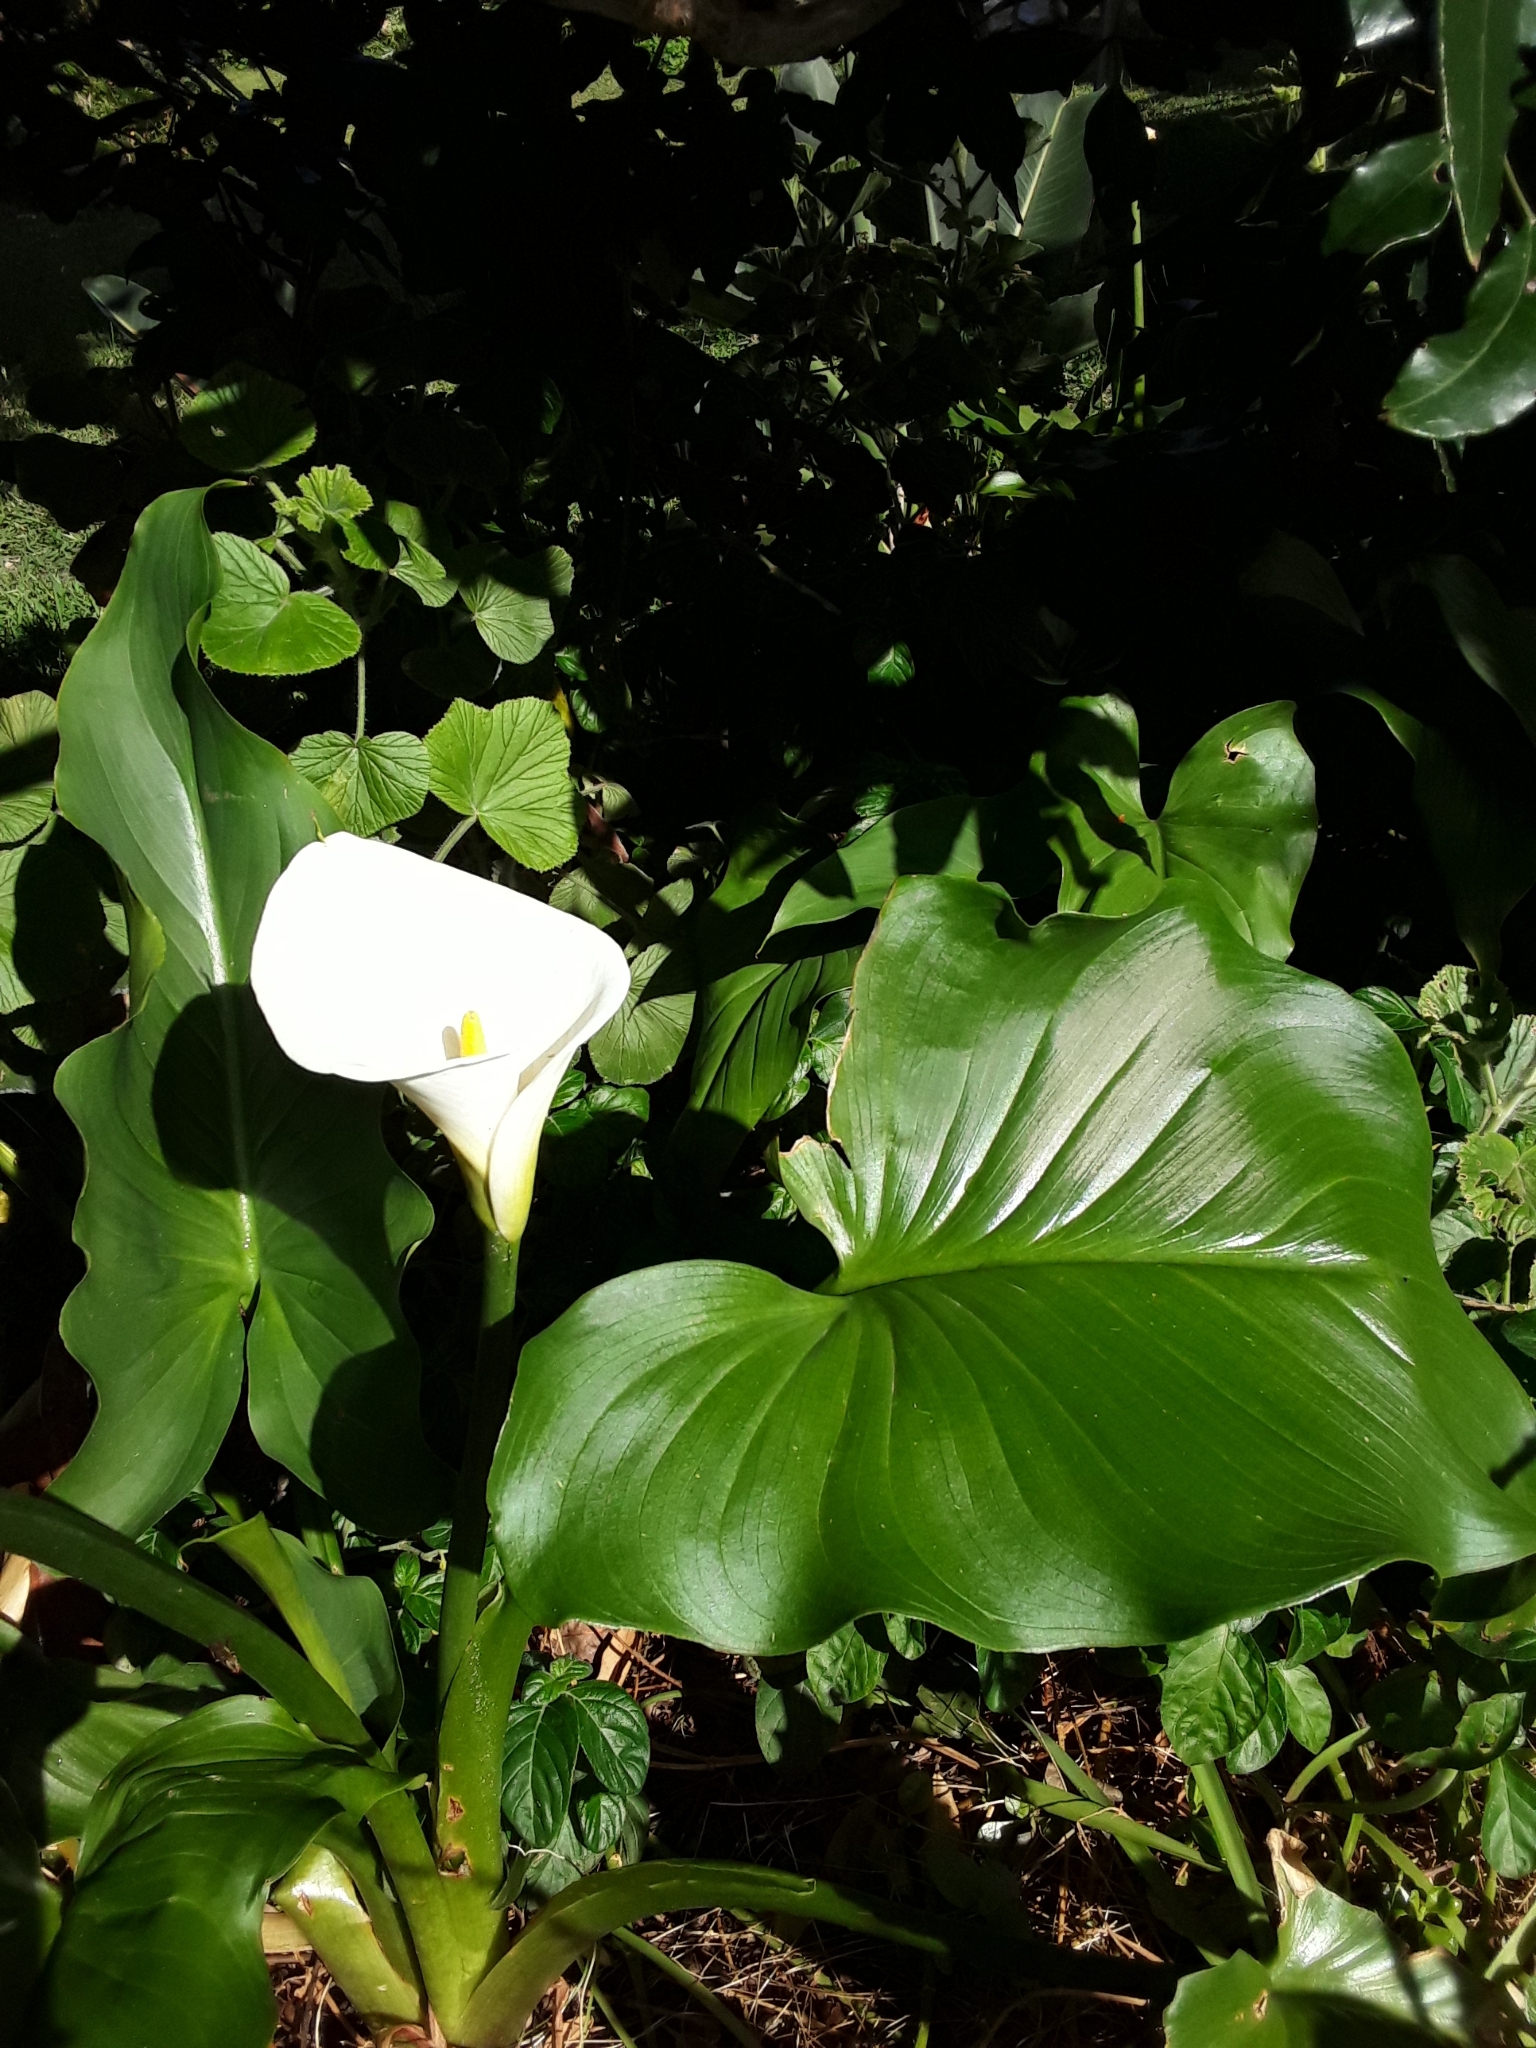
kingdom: Plantae
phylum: Tracheophyta
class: Liliopsida
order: Alismatales
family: Araceae
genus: Zantedeschia
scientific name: Zantedeschia aethiopica
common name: Altar-lily
